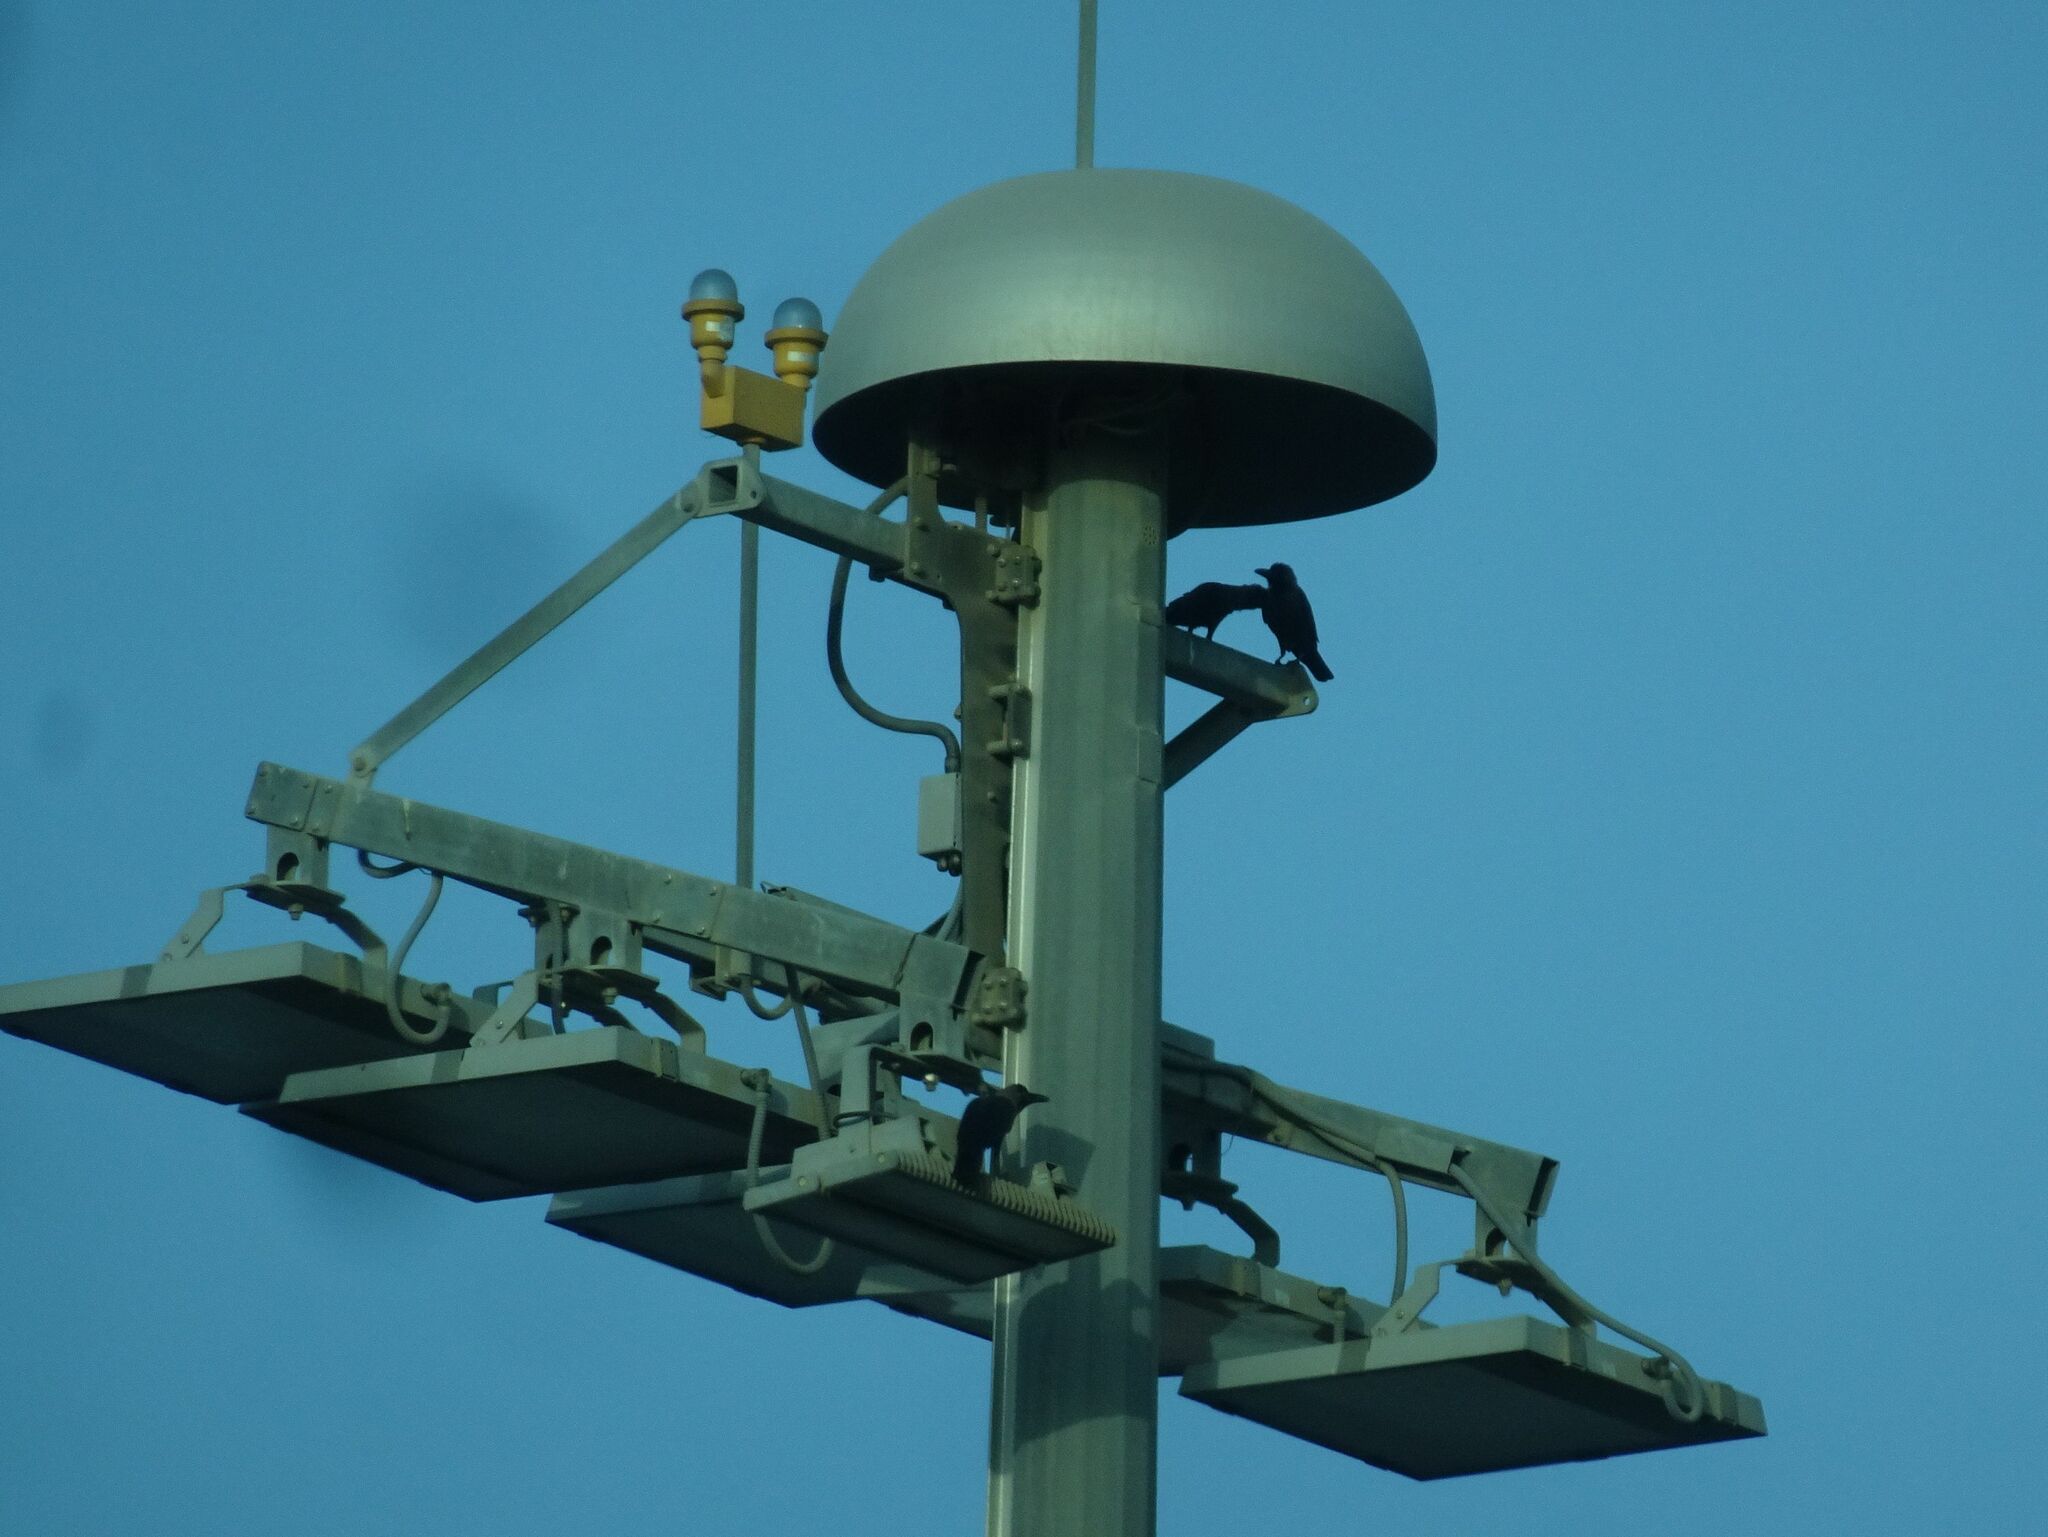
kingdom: Animalia
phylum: Chordata
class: Aves
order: Passeriformes
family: Corvidae
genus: Corvus
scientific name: Corvus splendens
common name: House crow
